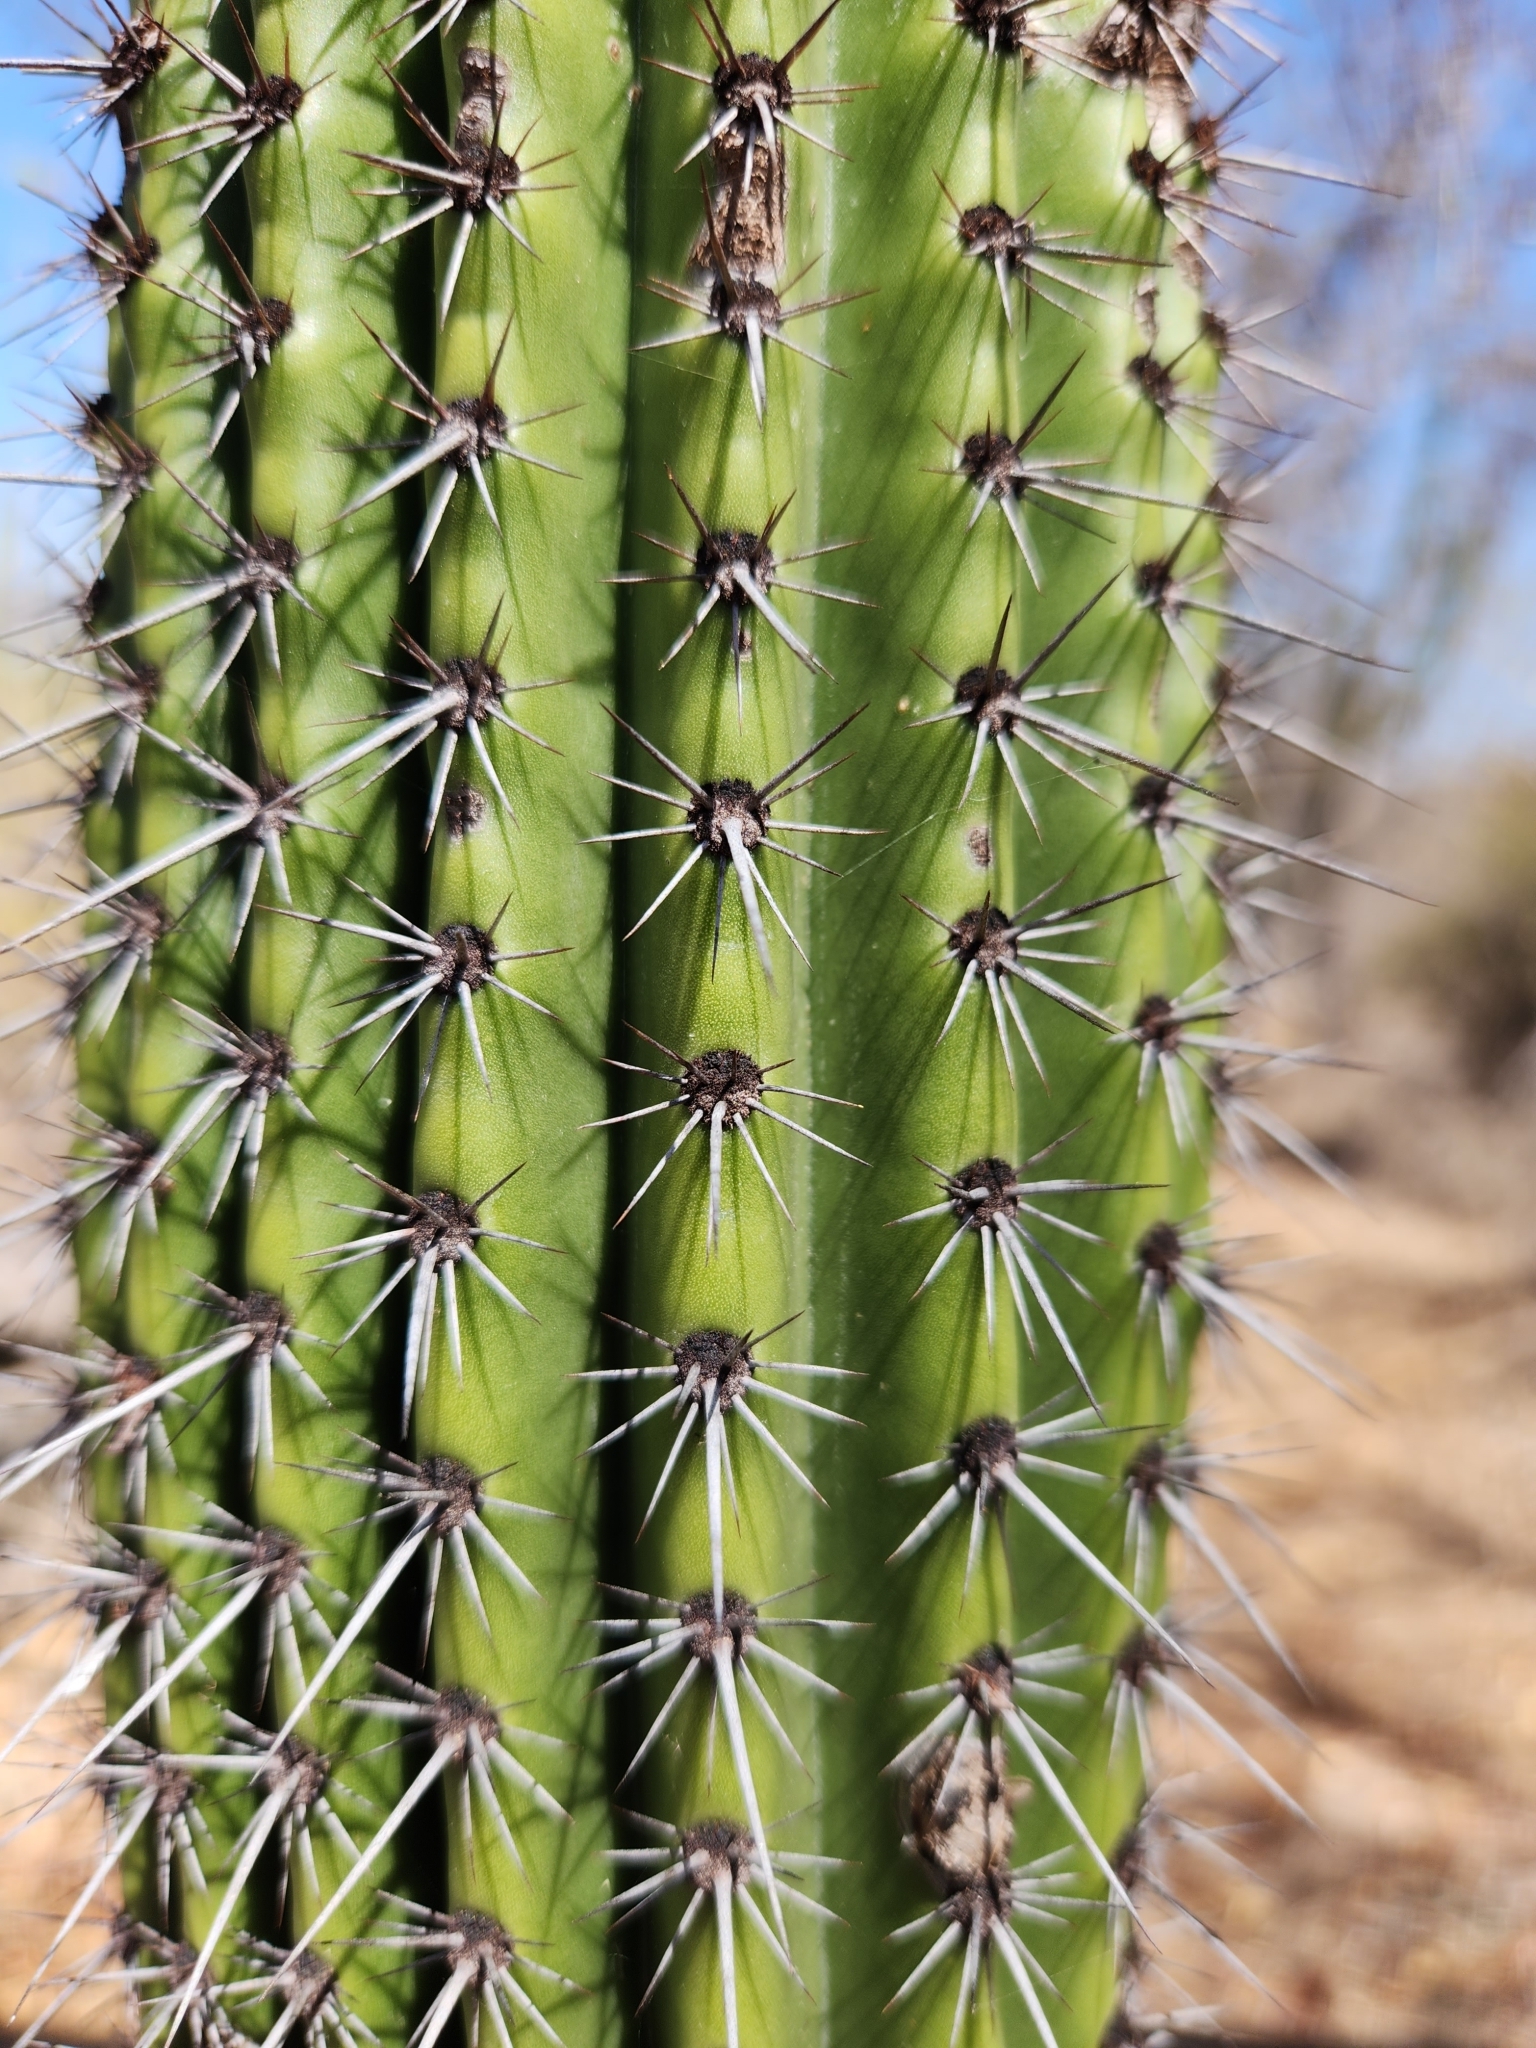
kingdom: Plantae
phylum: Tracheophyta
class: Magnoliopsida
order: Caryophyllales
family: Cactaceae
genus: Stenocereus
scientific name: Stenocereus thurberi
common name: Organ pipe cactus
